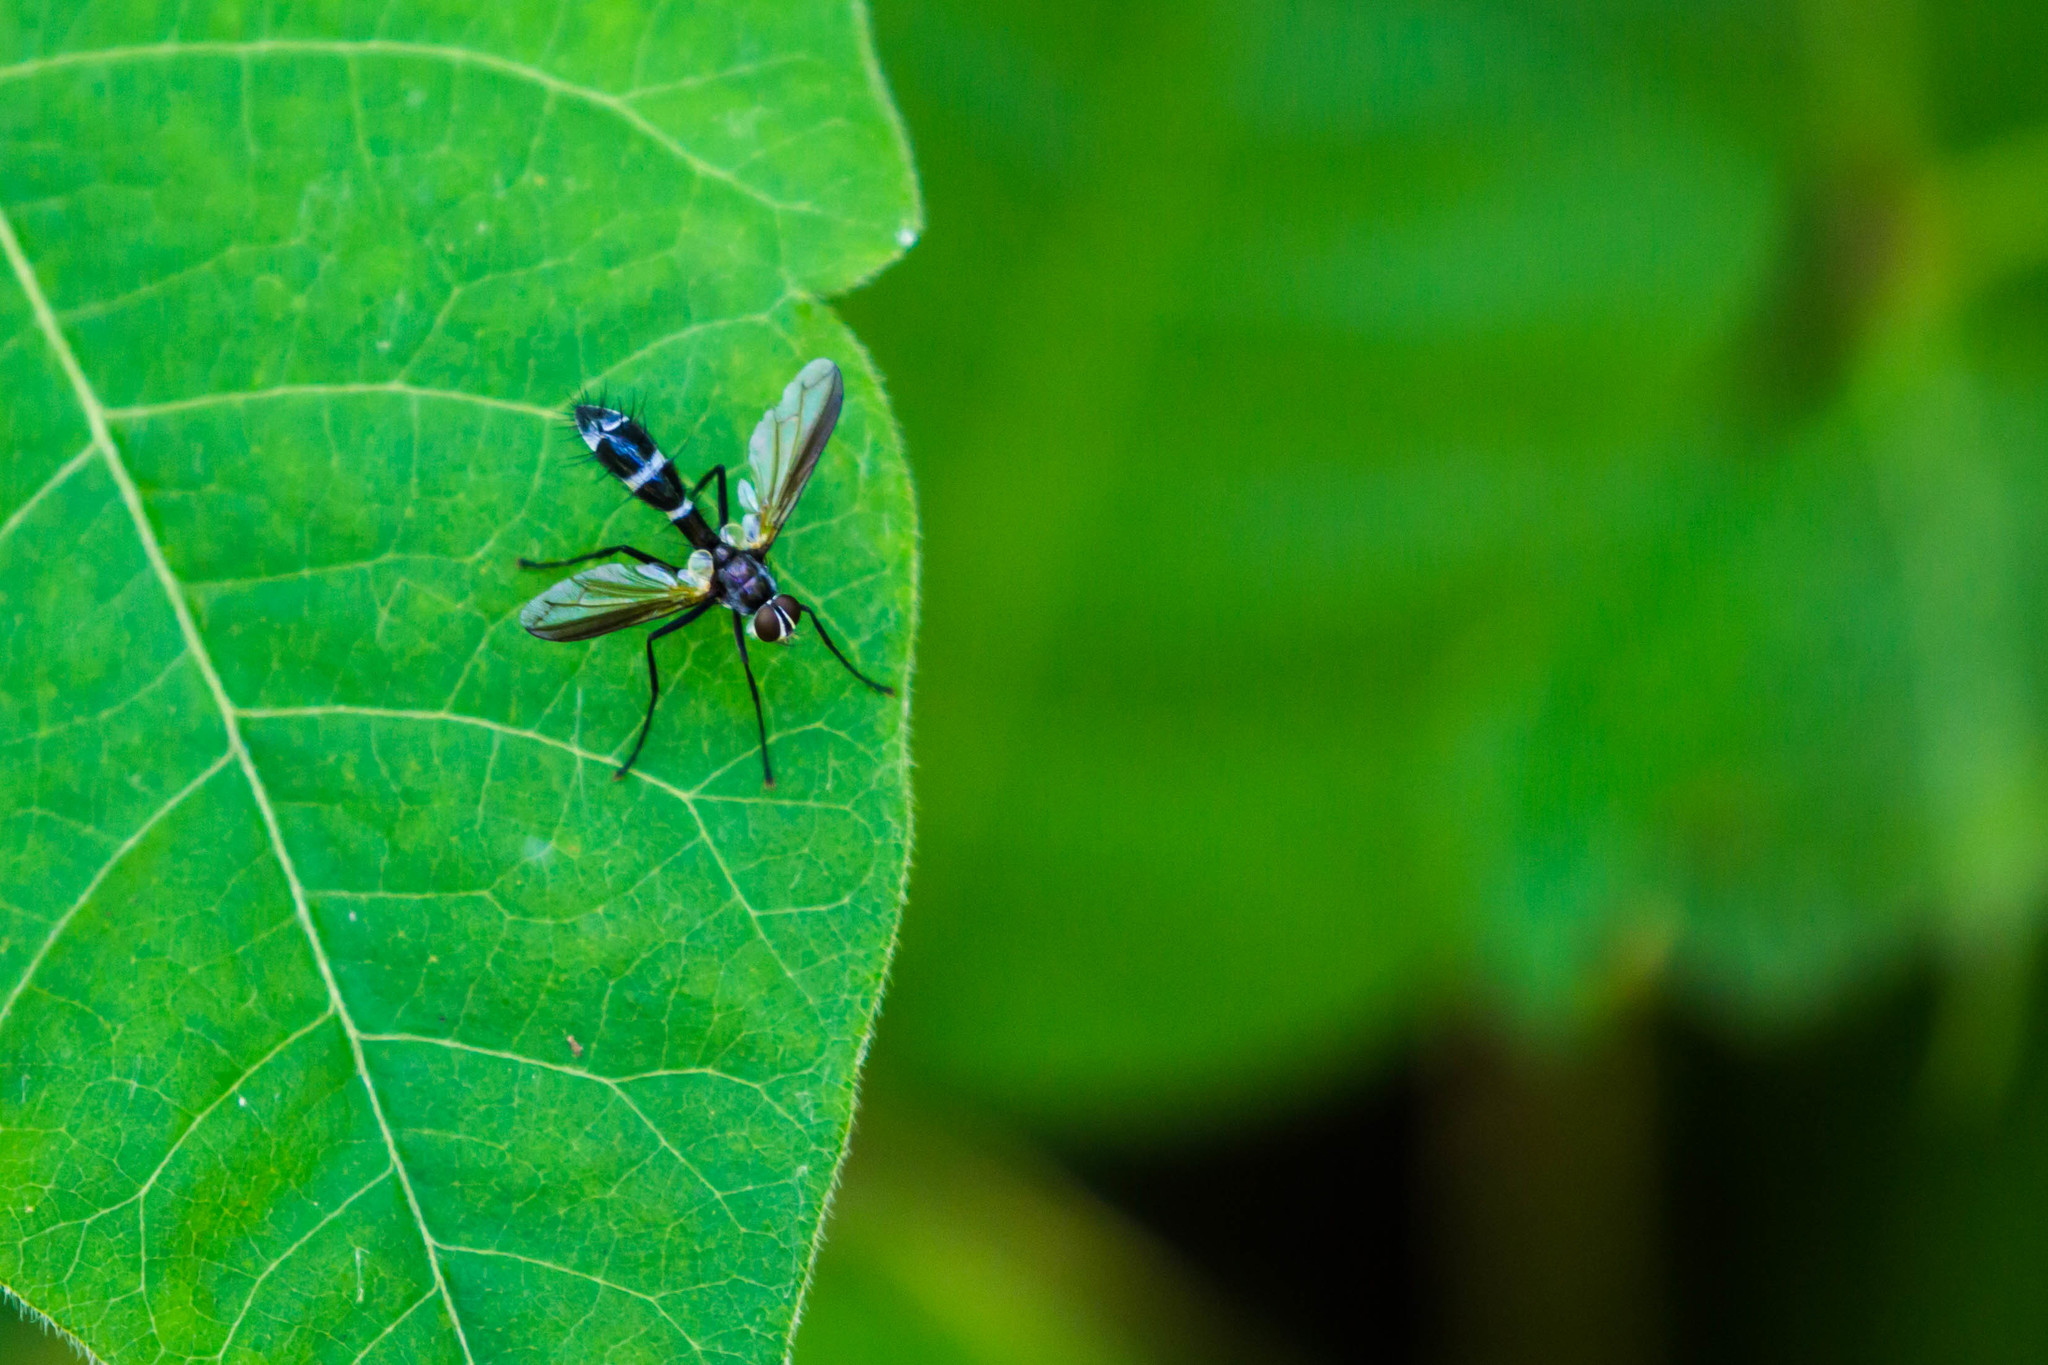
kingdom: Animalia
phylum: Arthropoda
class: Insecta
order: Diptera
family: Tachinidae
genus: Cordyligaster
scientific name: Cordyligaster septentrionalis
